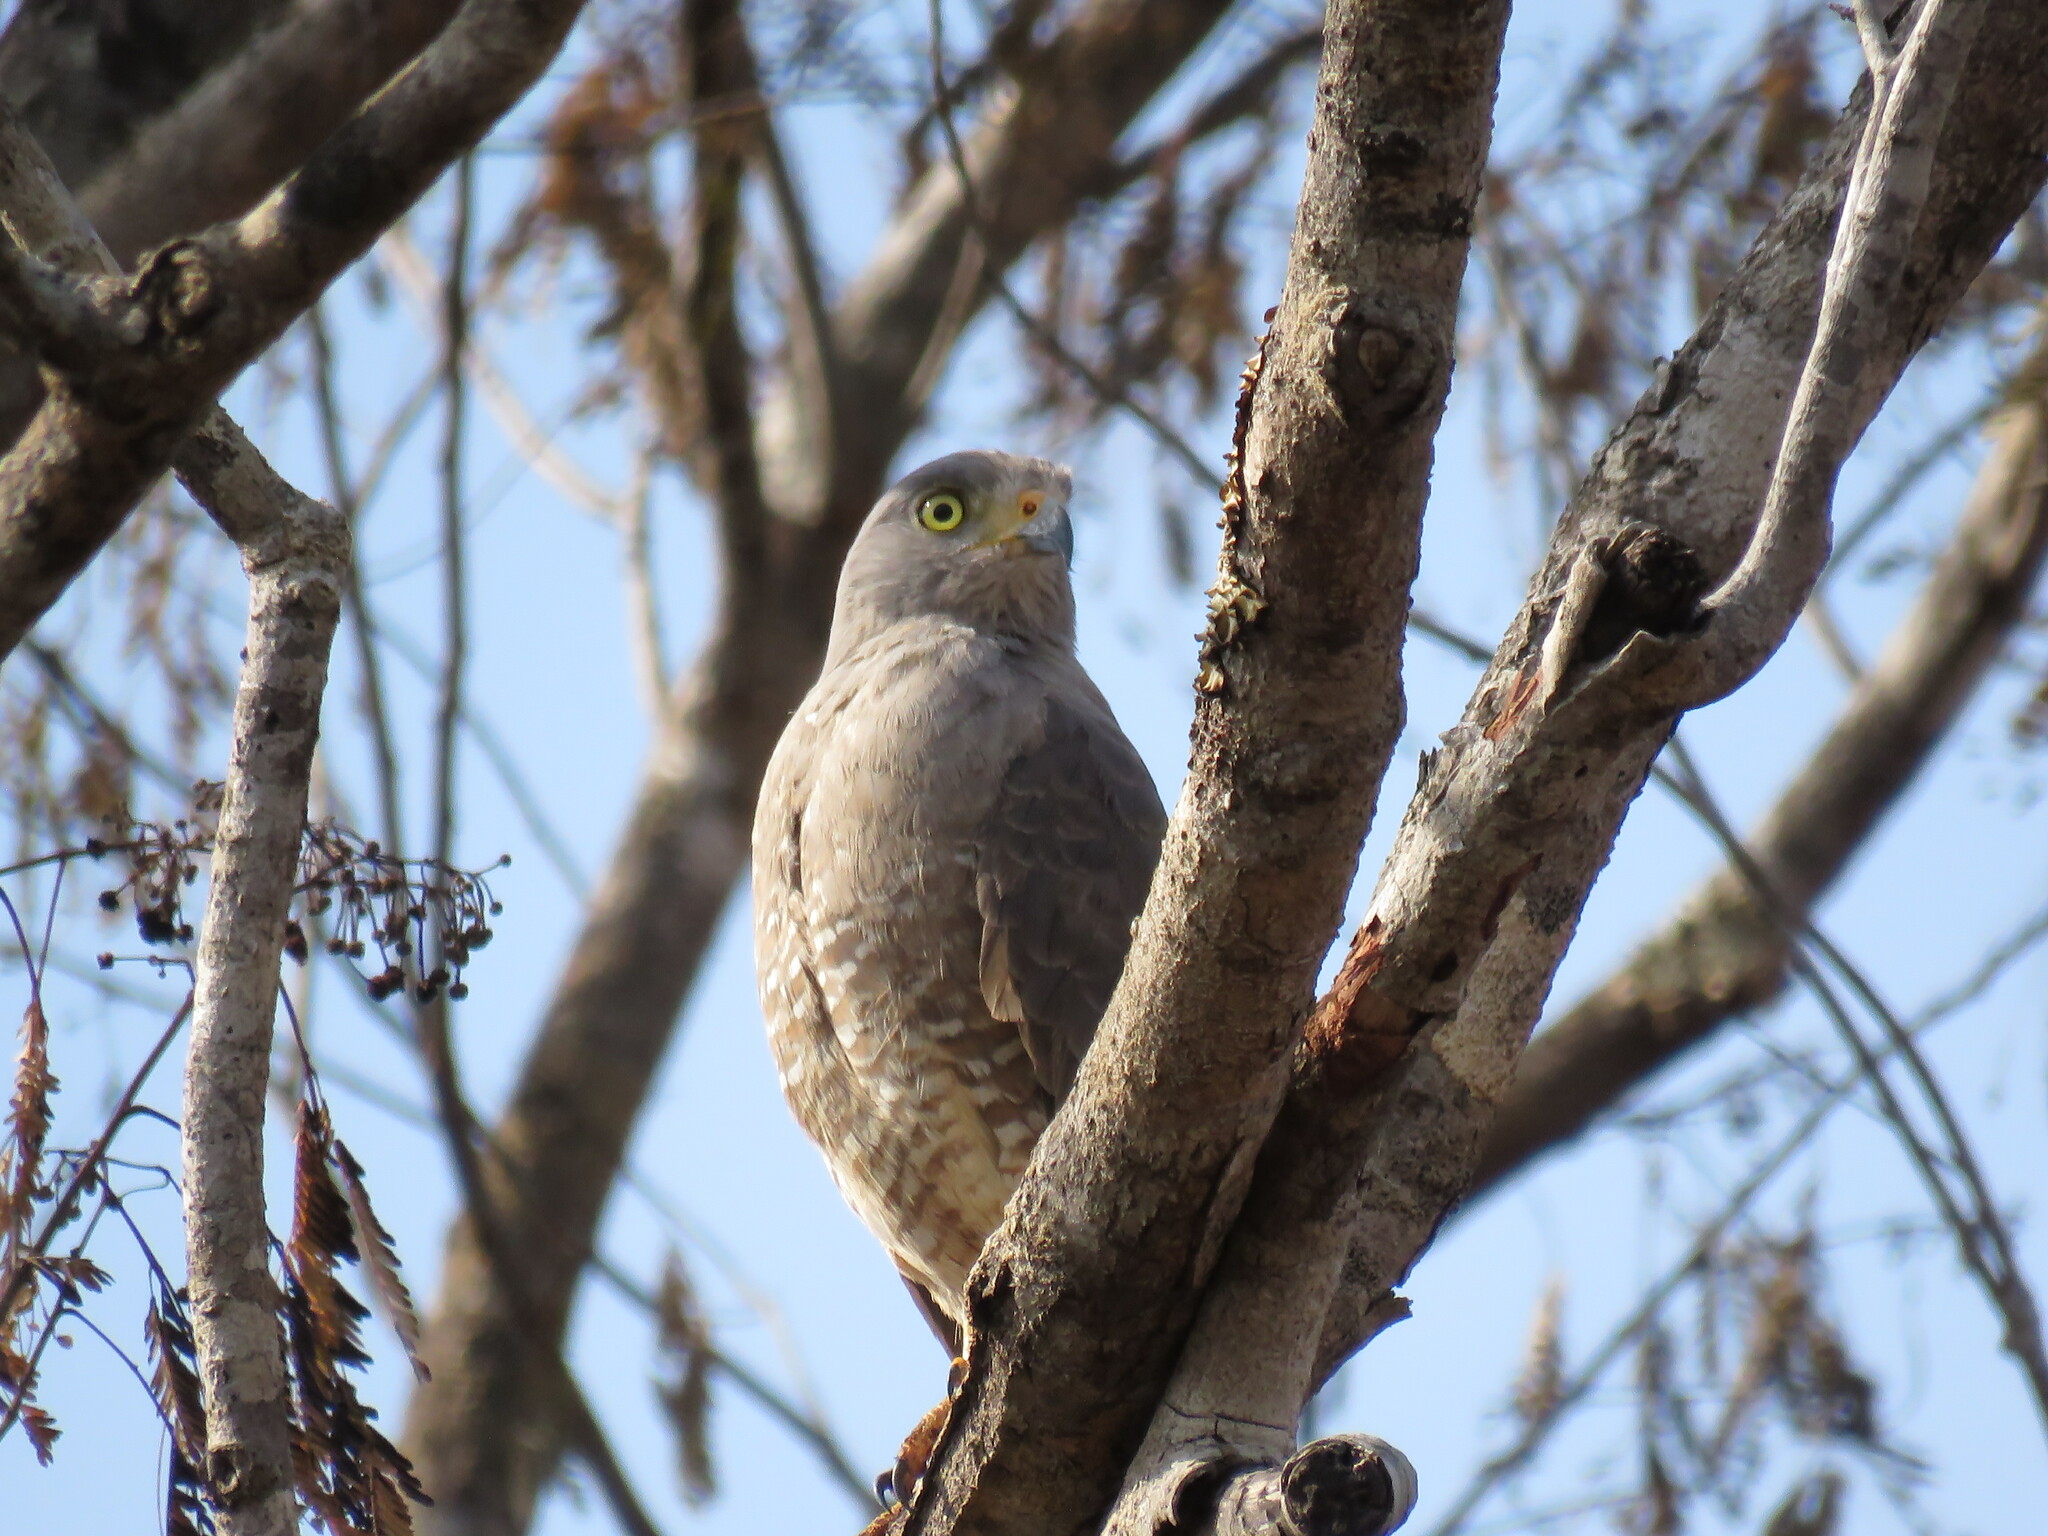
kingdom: Animalia
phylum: Chordata
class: Aves
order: Accipitriformes
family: Accipitridae
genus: Rupornis
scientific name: Rupornis magnirostris
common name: Roadside hawk
